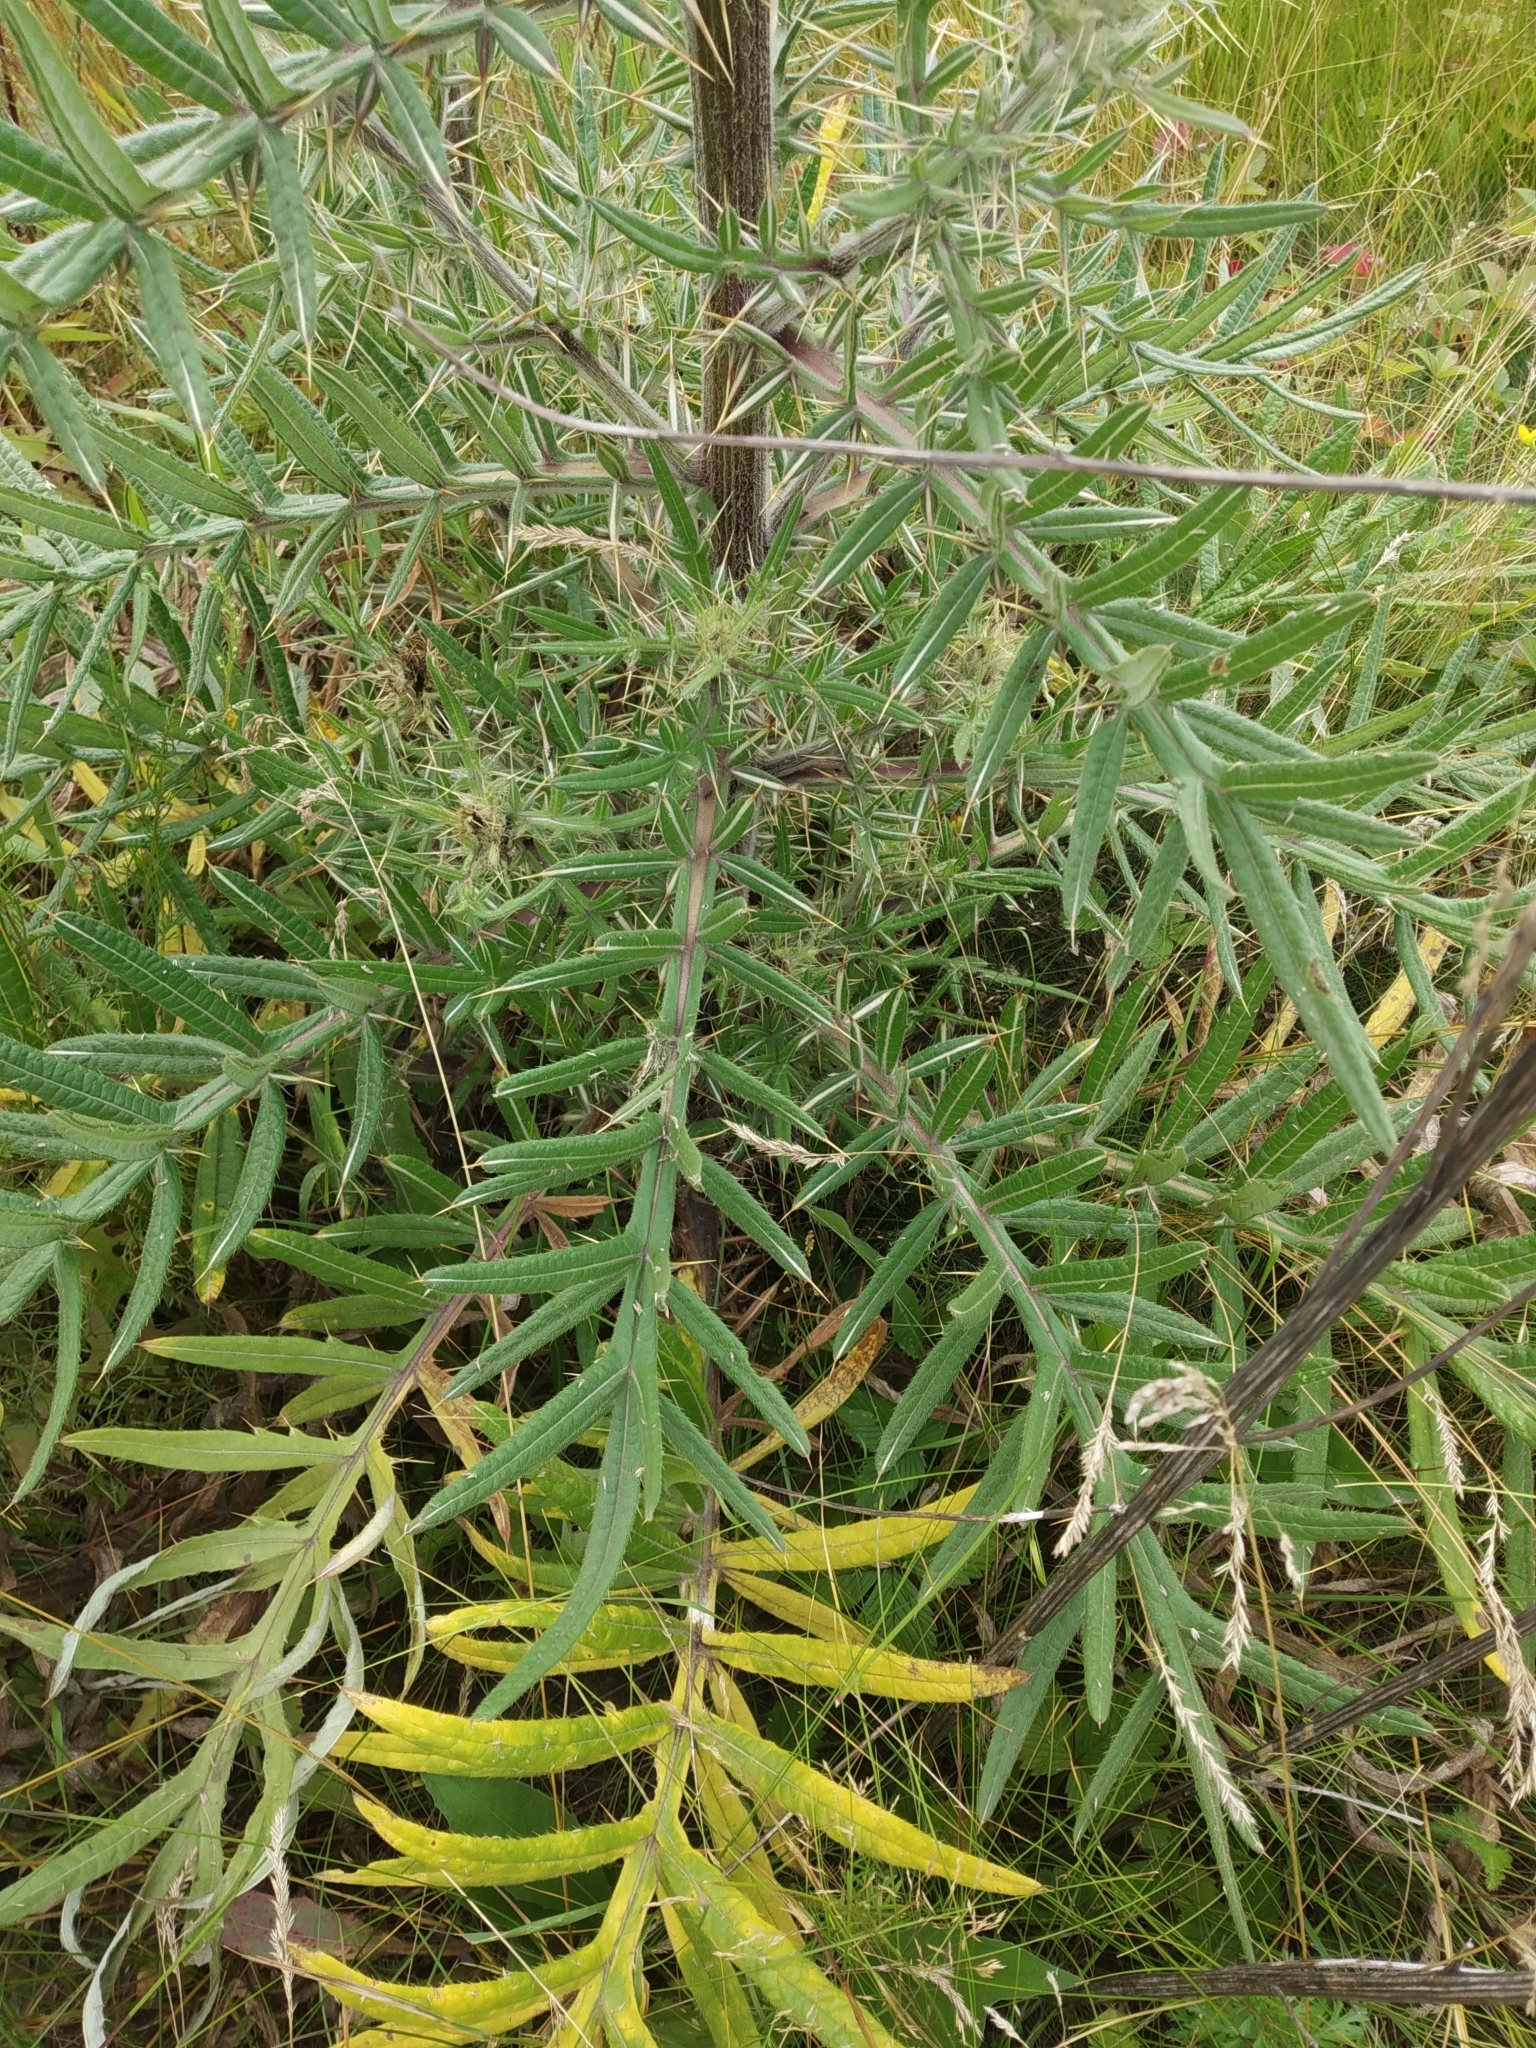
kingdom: Plantae
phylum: Tracheophyta
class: Magnoliopsida
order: Asterales
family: Asteraceae
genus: Lophiolepis
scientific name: Lophiolepis decussata
